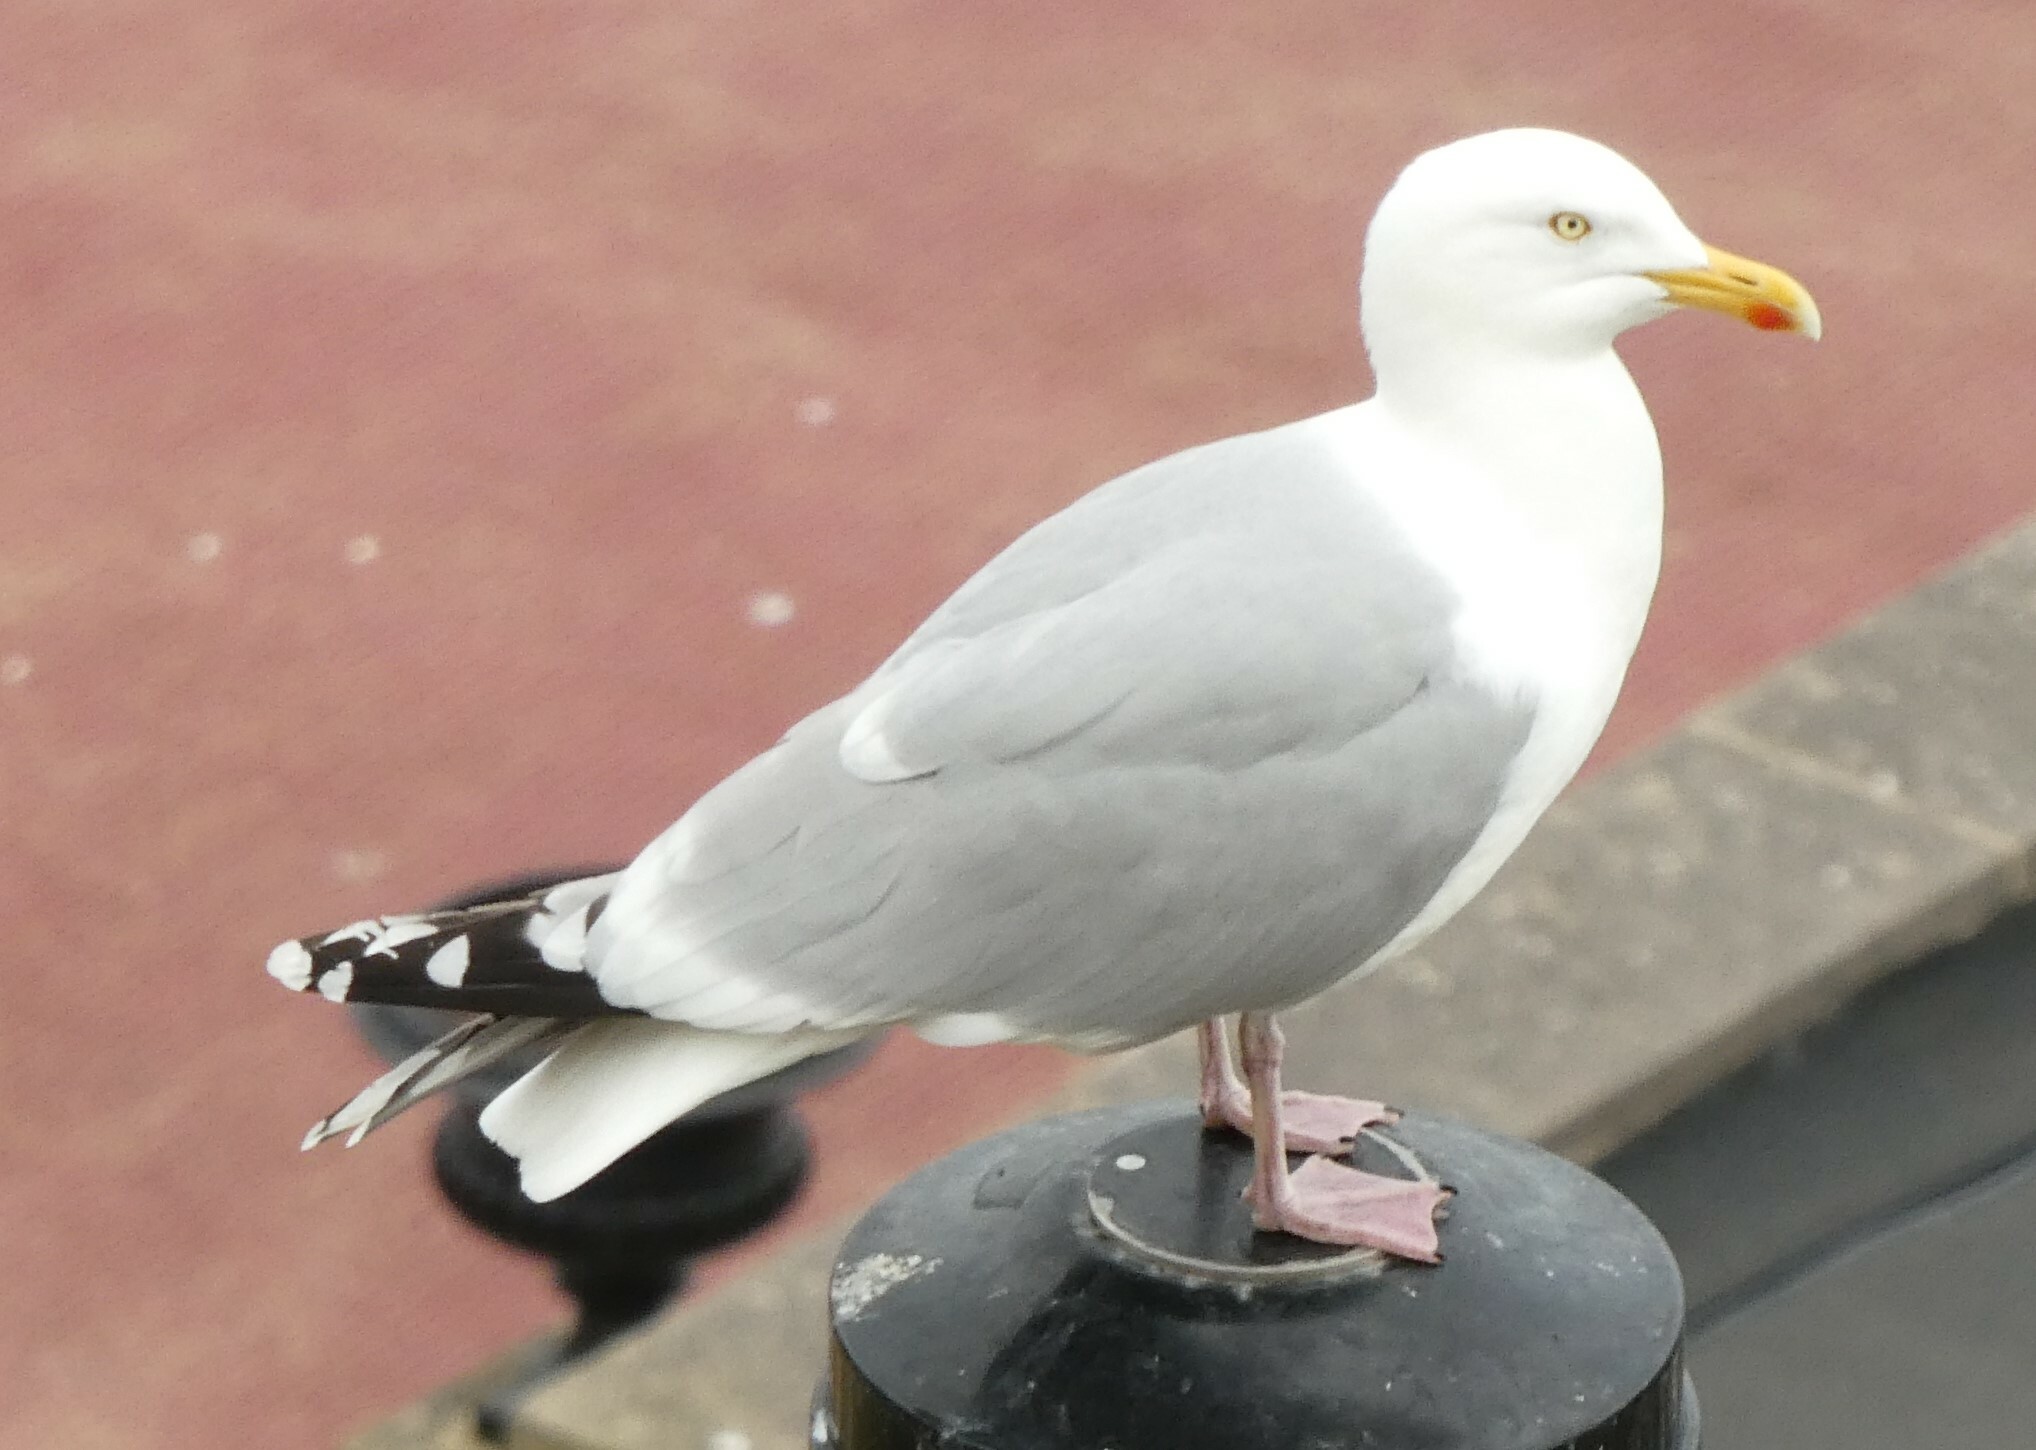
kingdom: Animalia
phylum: Chordata
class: Aves
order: Charadriiformes
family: Laridae
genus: Larus
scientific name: Larus argentatus
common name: Herring gull
